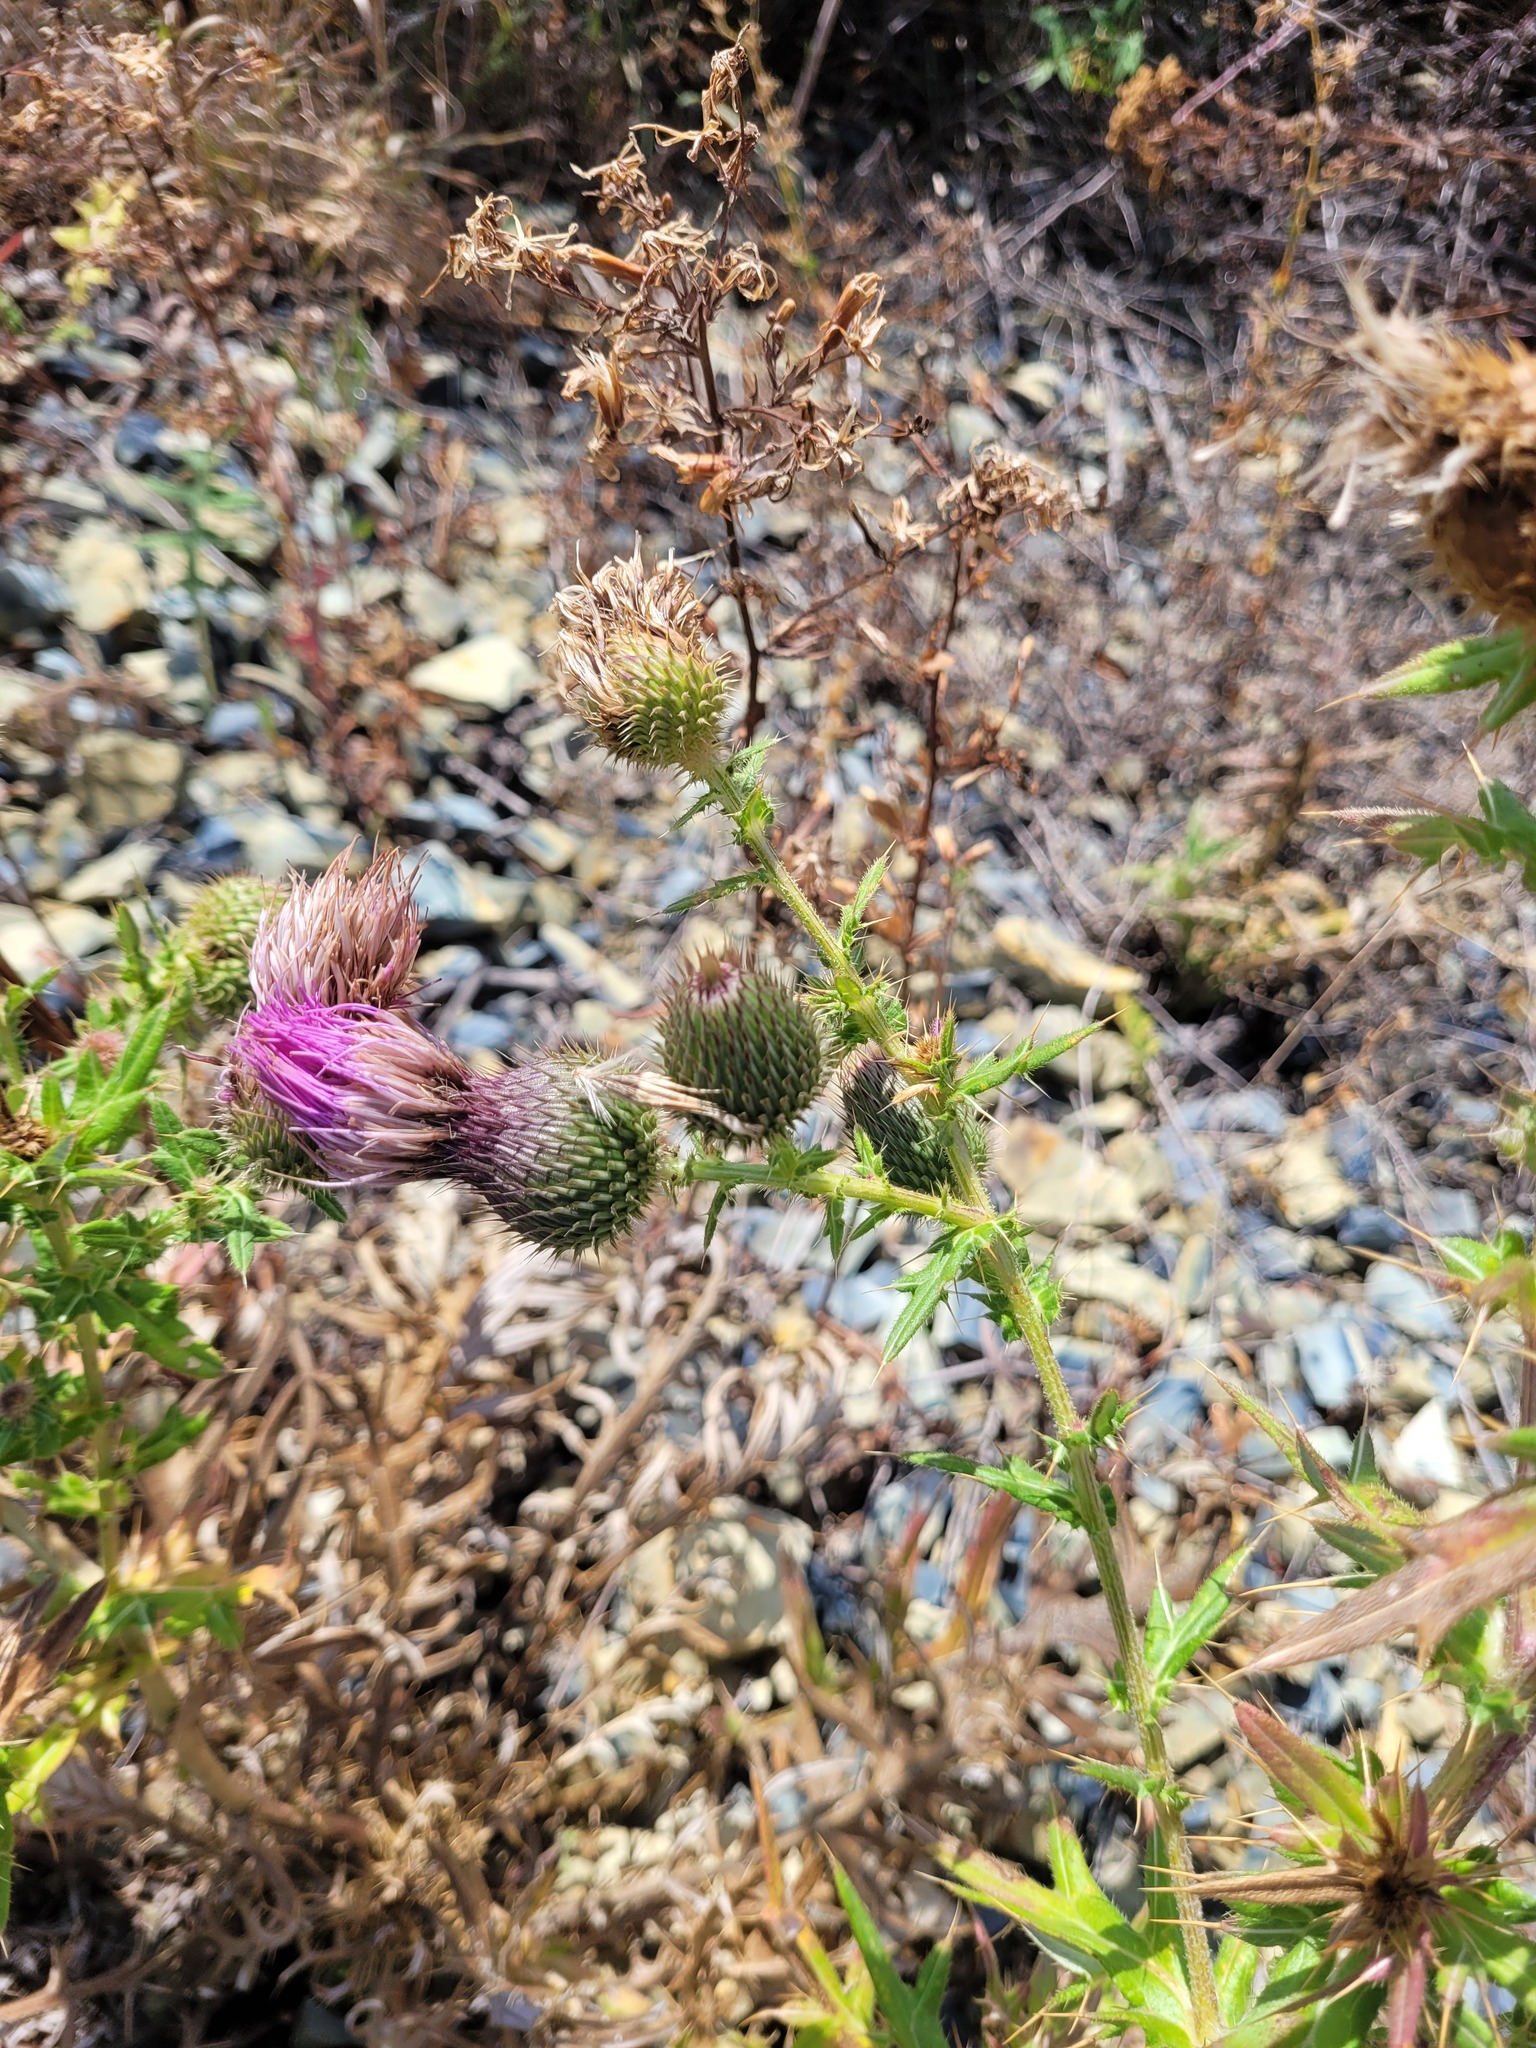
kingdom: Plantae
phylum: Tracheophyta
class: Magnoliopsida
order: Asterales
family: Asteraceae
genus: Cirsium
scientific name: Cirsium serrulatum
